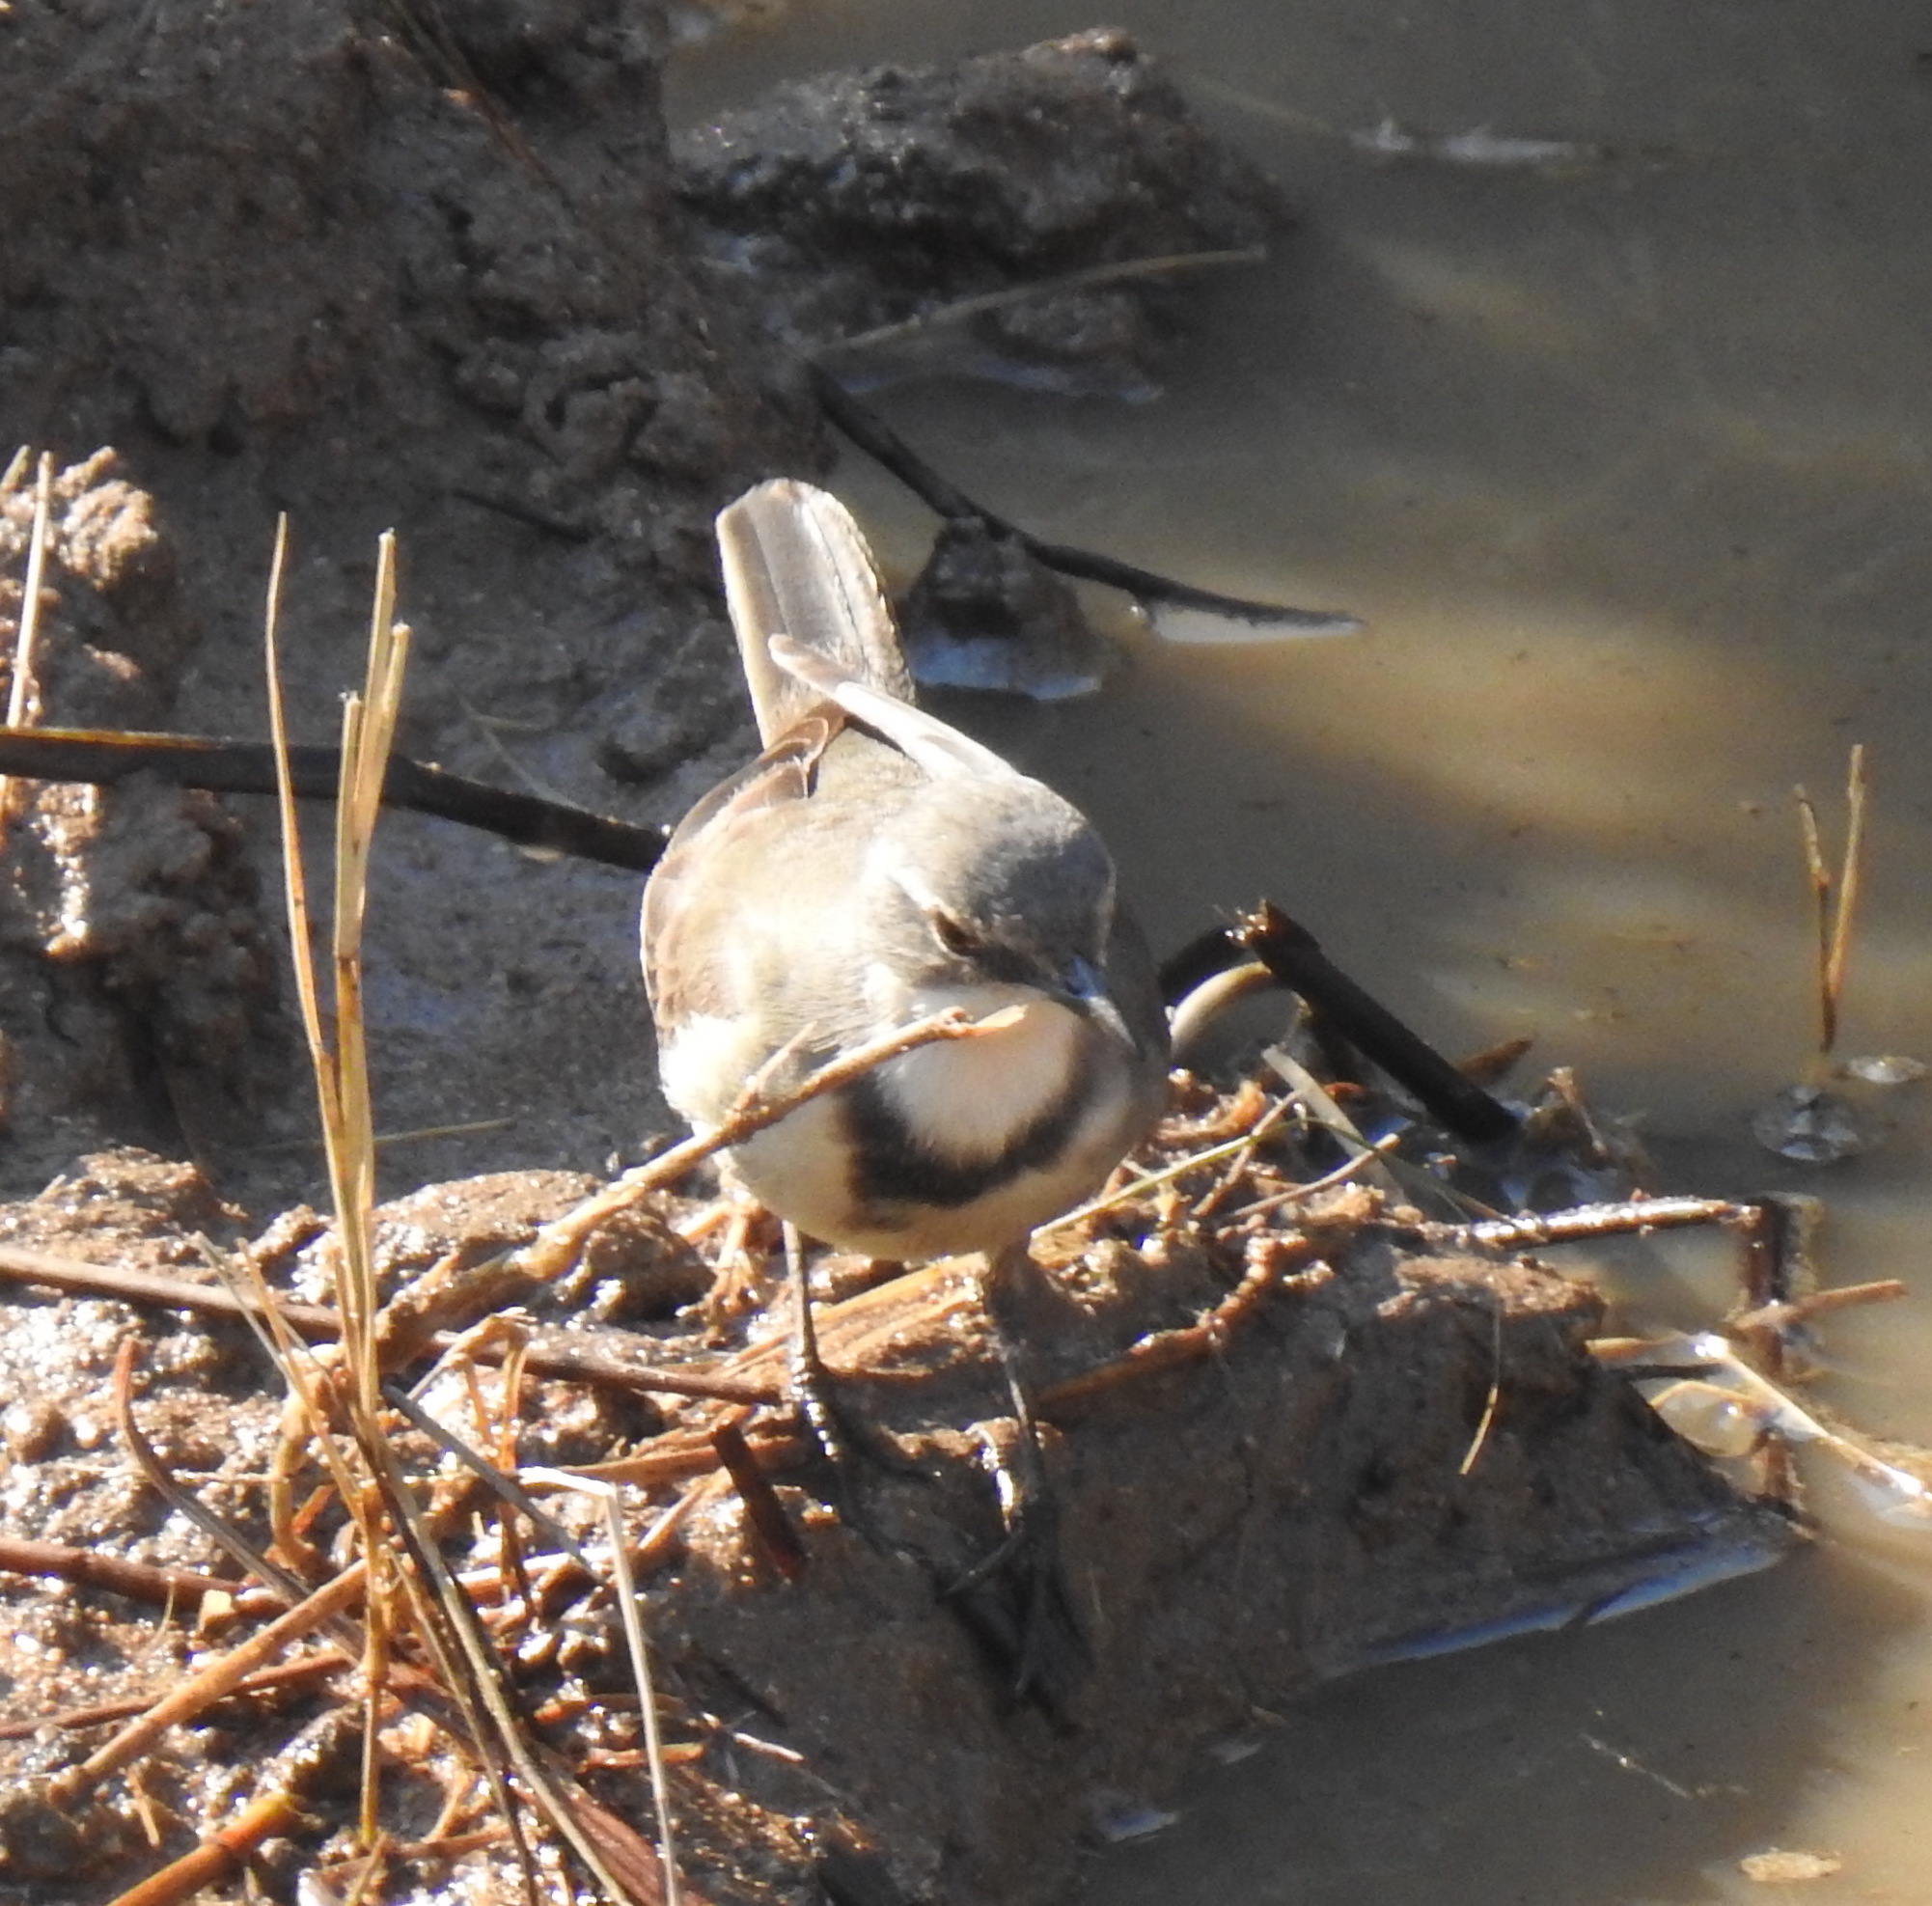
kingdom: Animalia
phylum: Chordata
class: Aves
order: Passeriformes
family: Motacillidae
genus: Motacilla
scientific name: Motacilla capensis
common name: Cape wagtail
